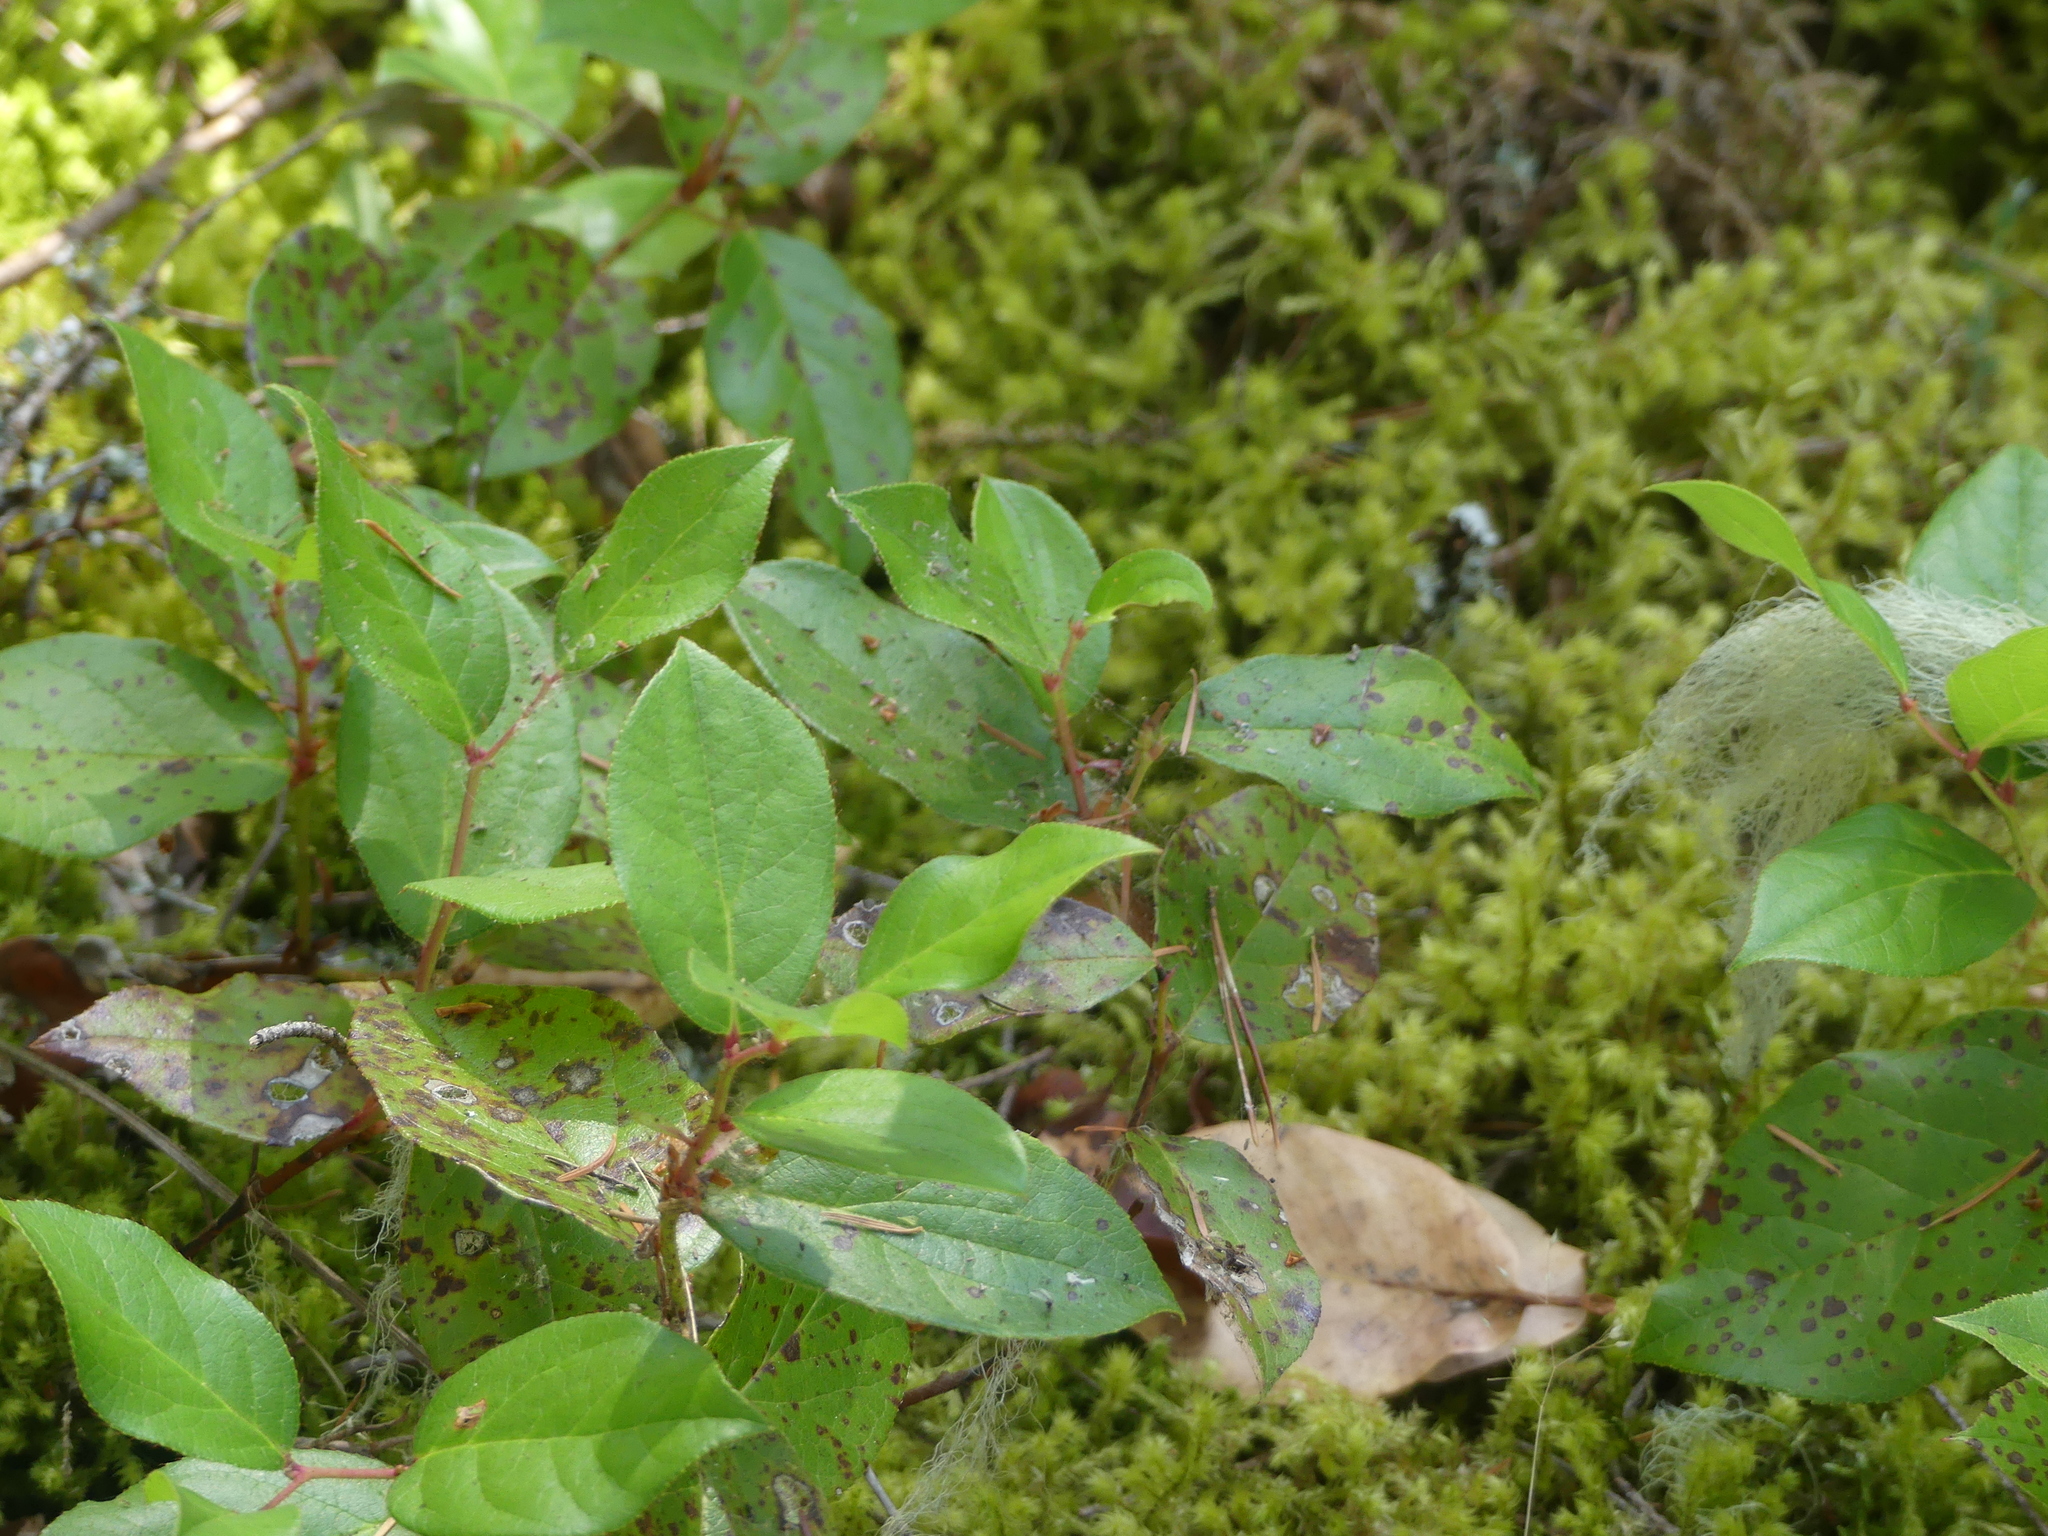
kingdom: Plantae
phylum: Tracheophyta
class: Magnoliopsida
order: Ericales
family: Ericaceae
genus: Gaultheria
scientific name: Gaultheria shallon
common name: Shallon
